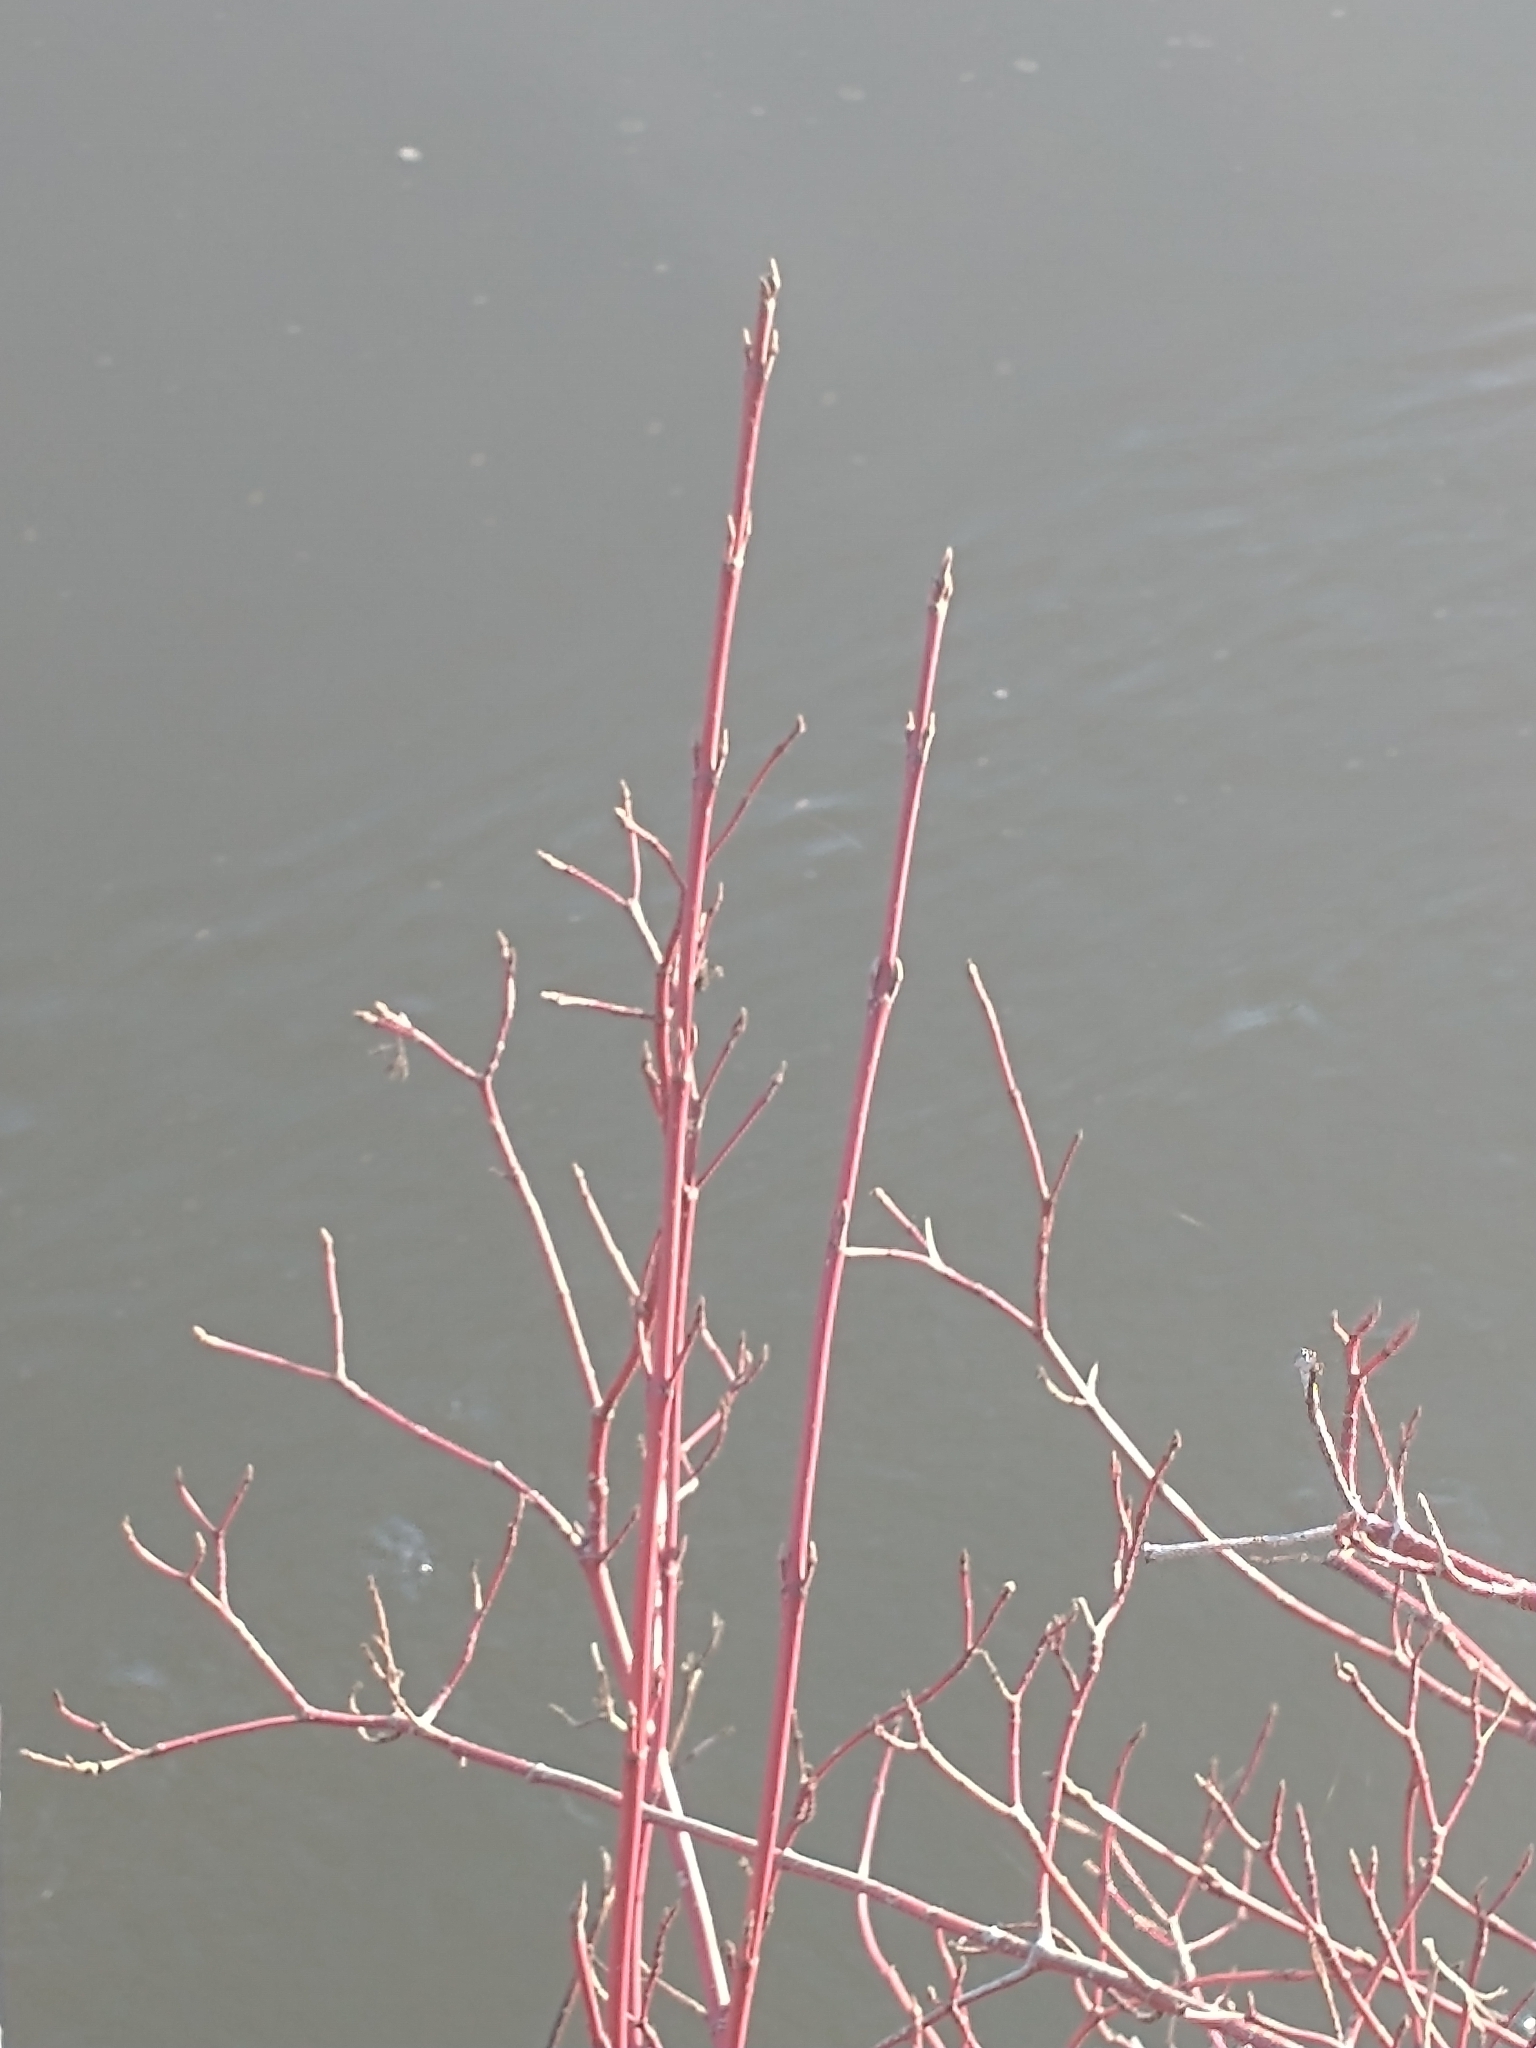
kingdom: Plantae
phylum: Tracheophyta
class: Magnoliopsida
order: Cornales
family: Cornaceae
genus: Cornus
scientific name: Cornus sericea
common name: Red-osier dogwood
